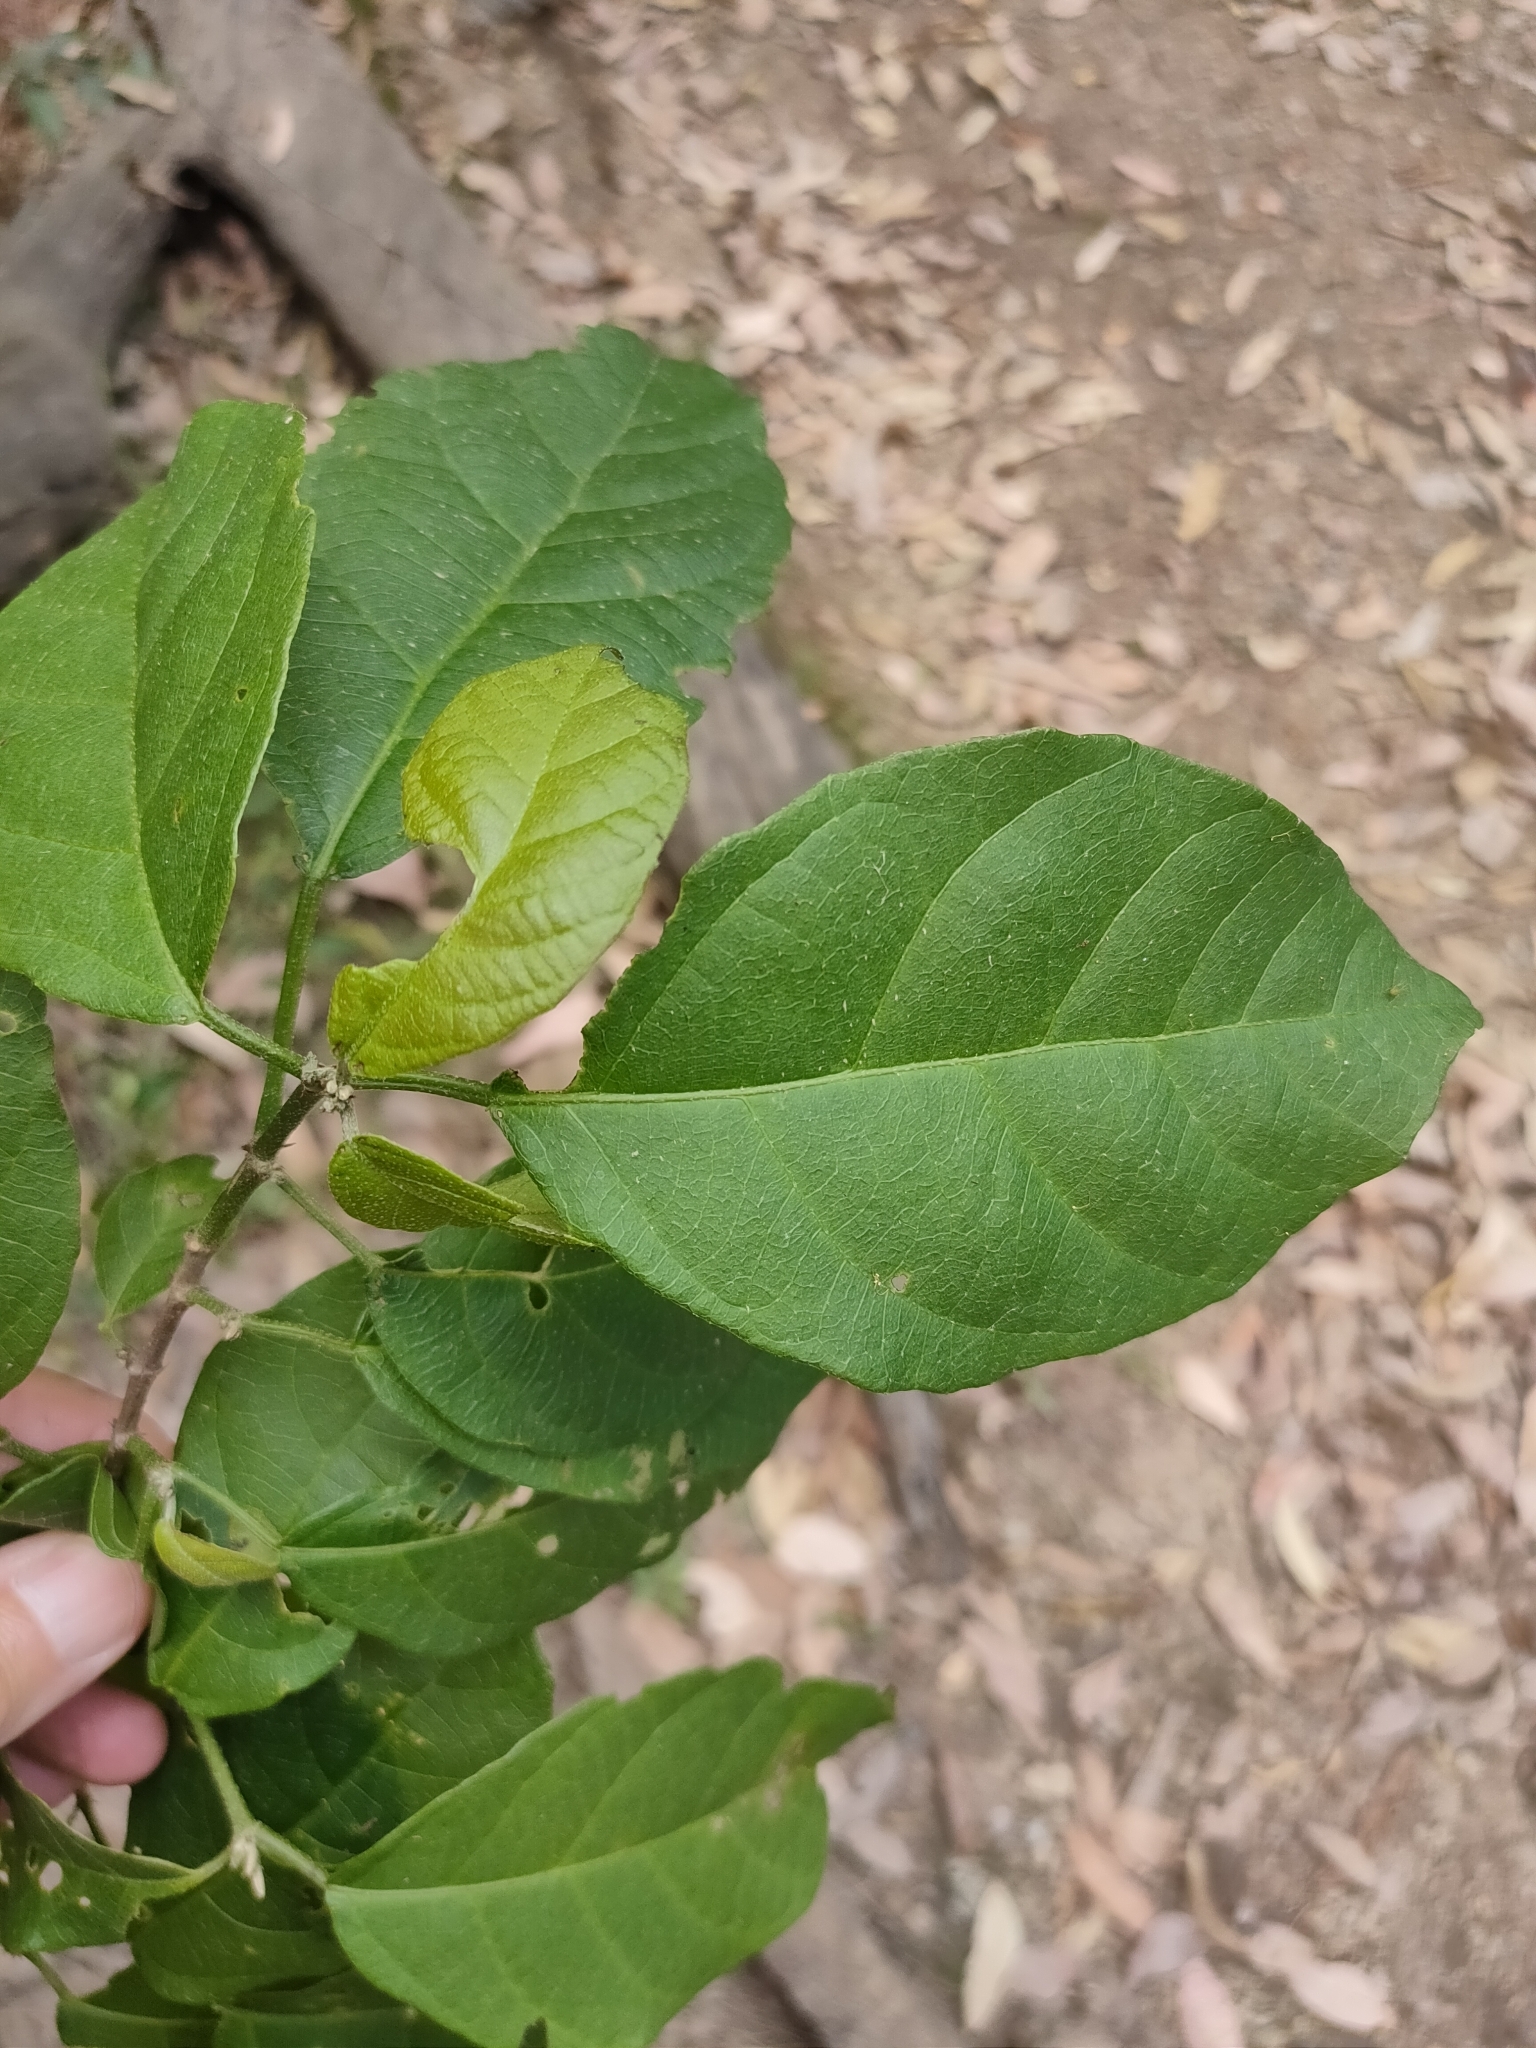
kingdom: Plantae
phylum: Tracheophyta
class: Magnoliopsida
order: Malpighiales
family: Euphorbiaceae
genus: Mallotus
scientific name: Mallotus claoxyloides
